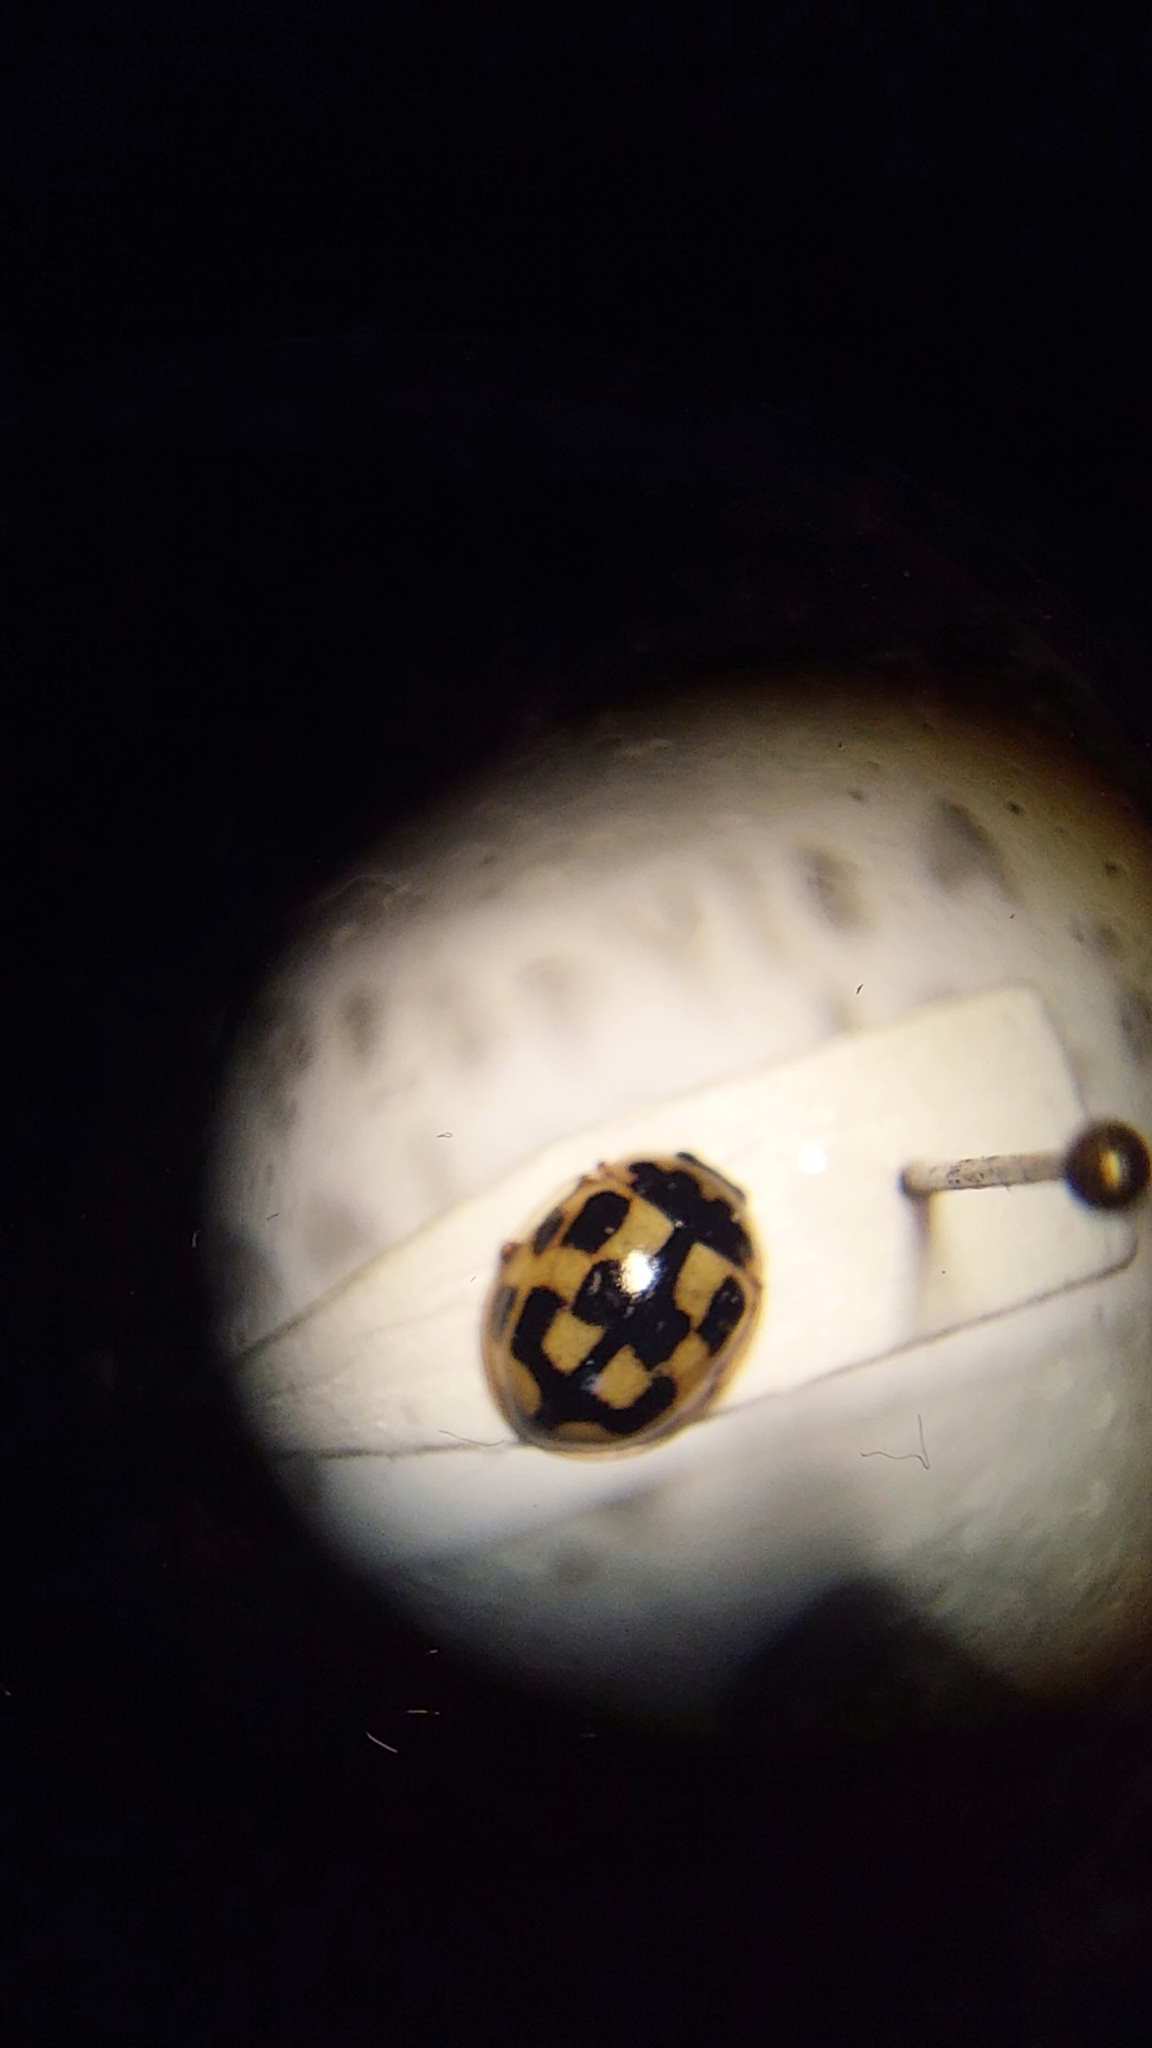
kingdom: Animalia
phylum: Arthropoda
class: Insecta
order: Coleoptera
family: Coccinellidae
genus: Propylaea
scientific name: Propylaea quatuordecimpunctata
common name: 14-spotted ladybird beetle
